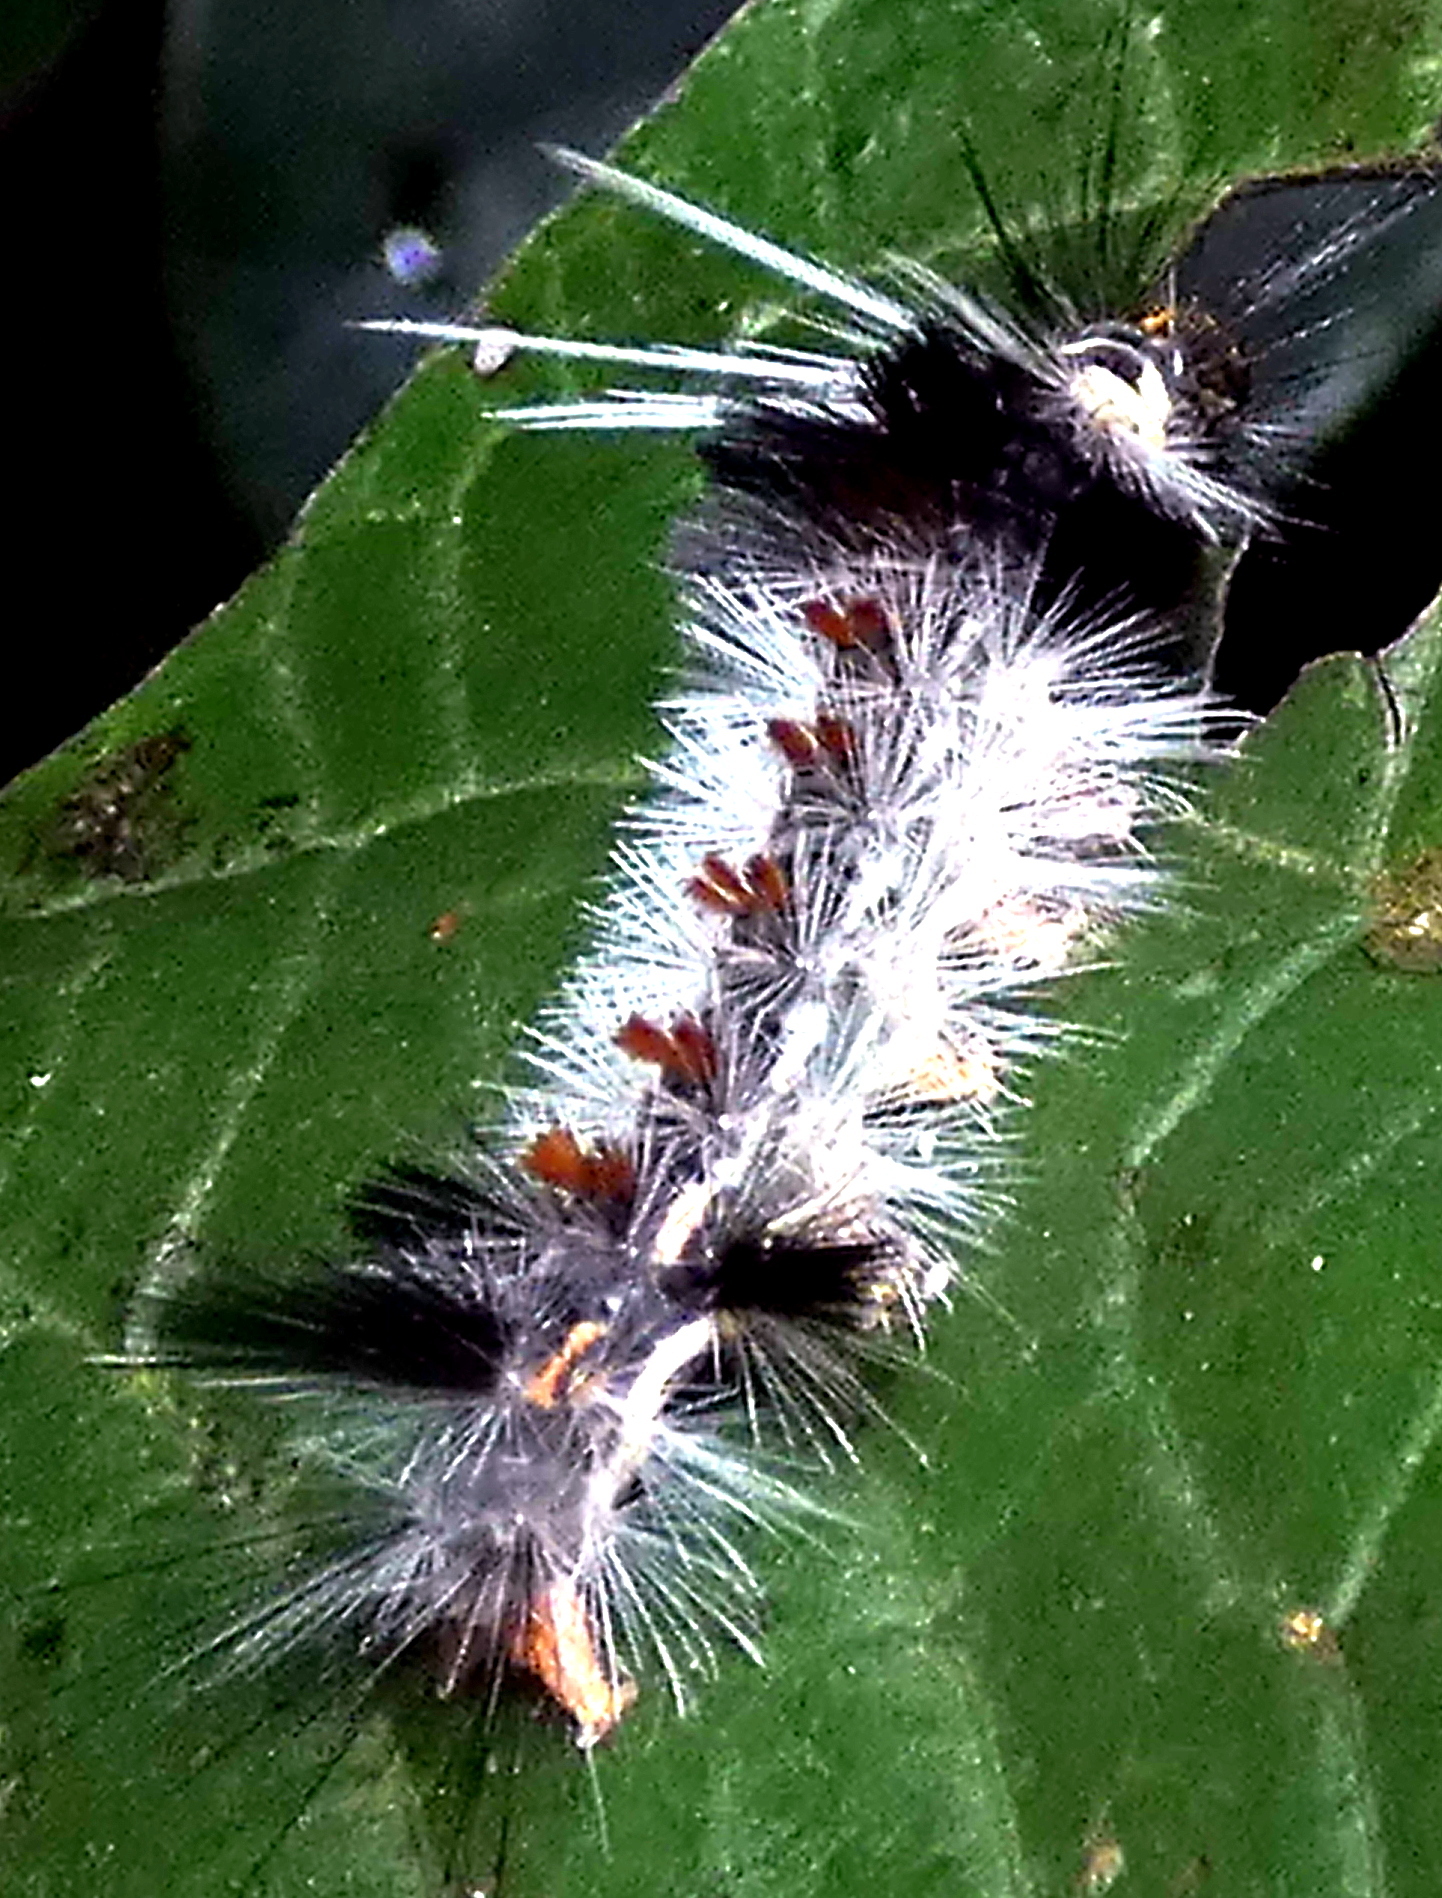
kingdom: Animalia
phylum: Arthropoda
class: Insecta
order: Lepidoptera
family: Erebidae
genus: Carales
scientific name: Carales astur
